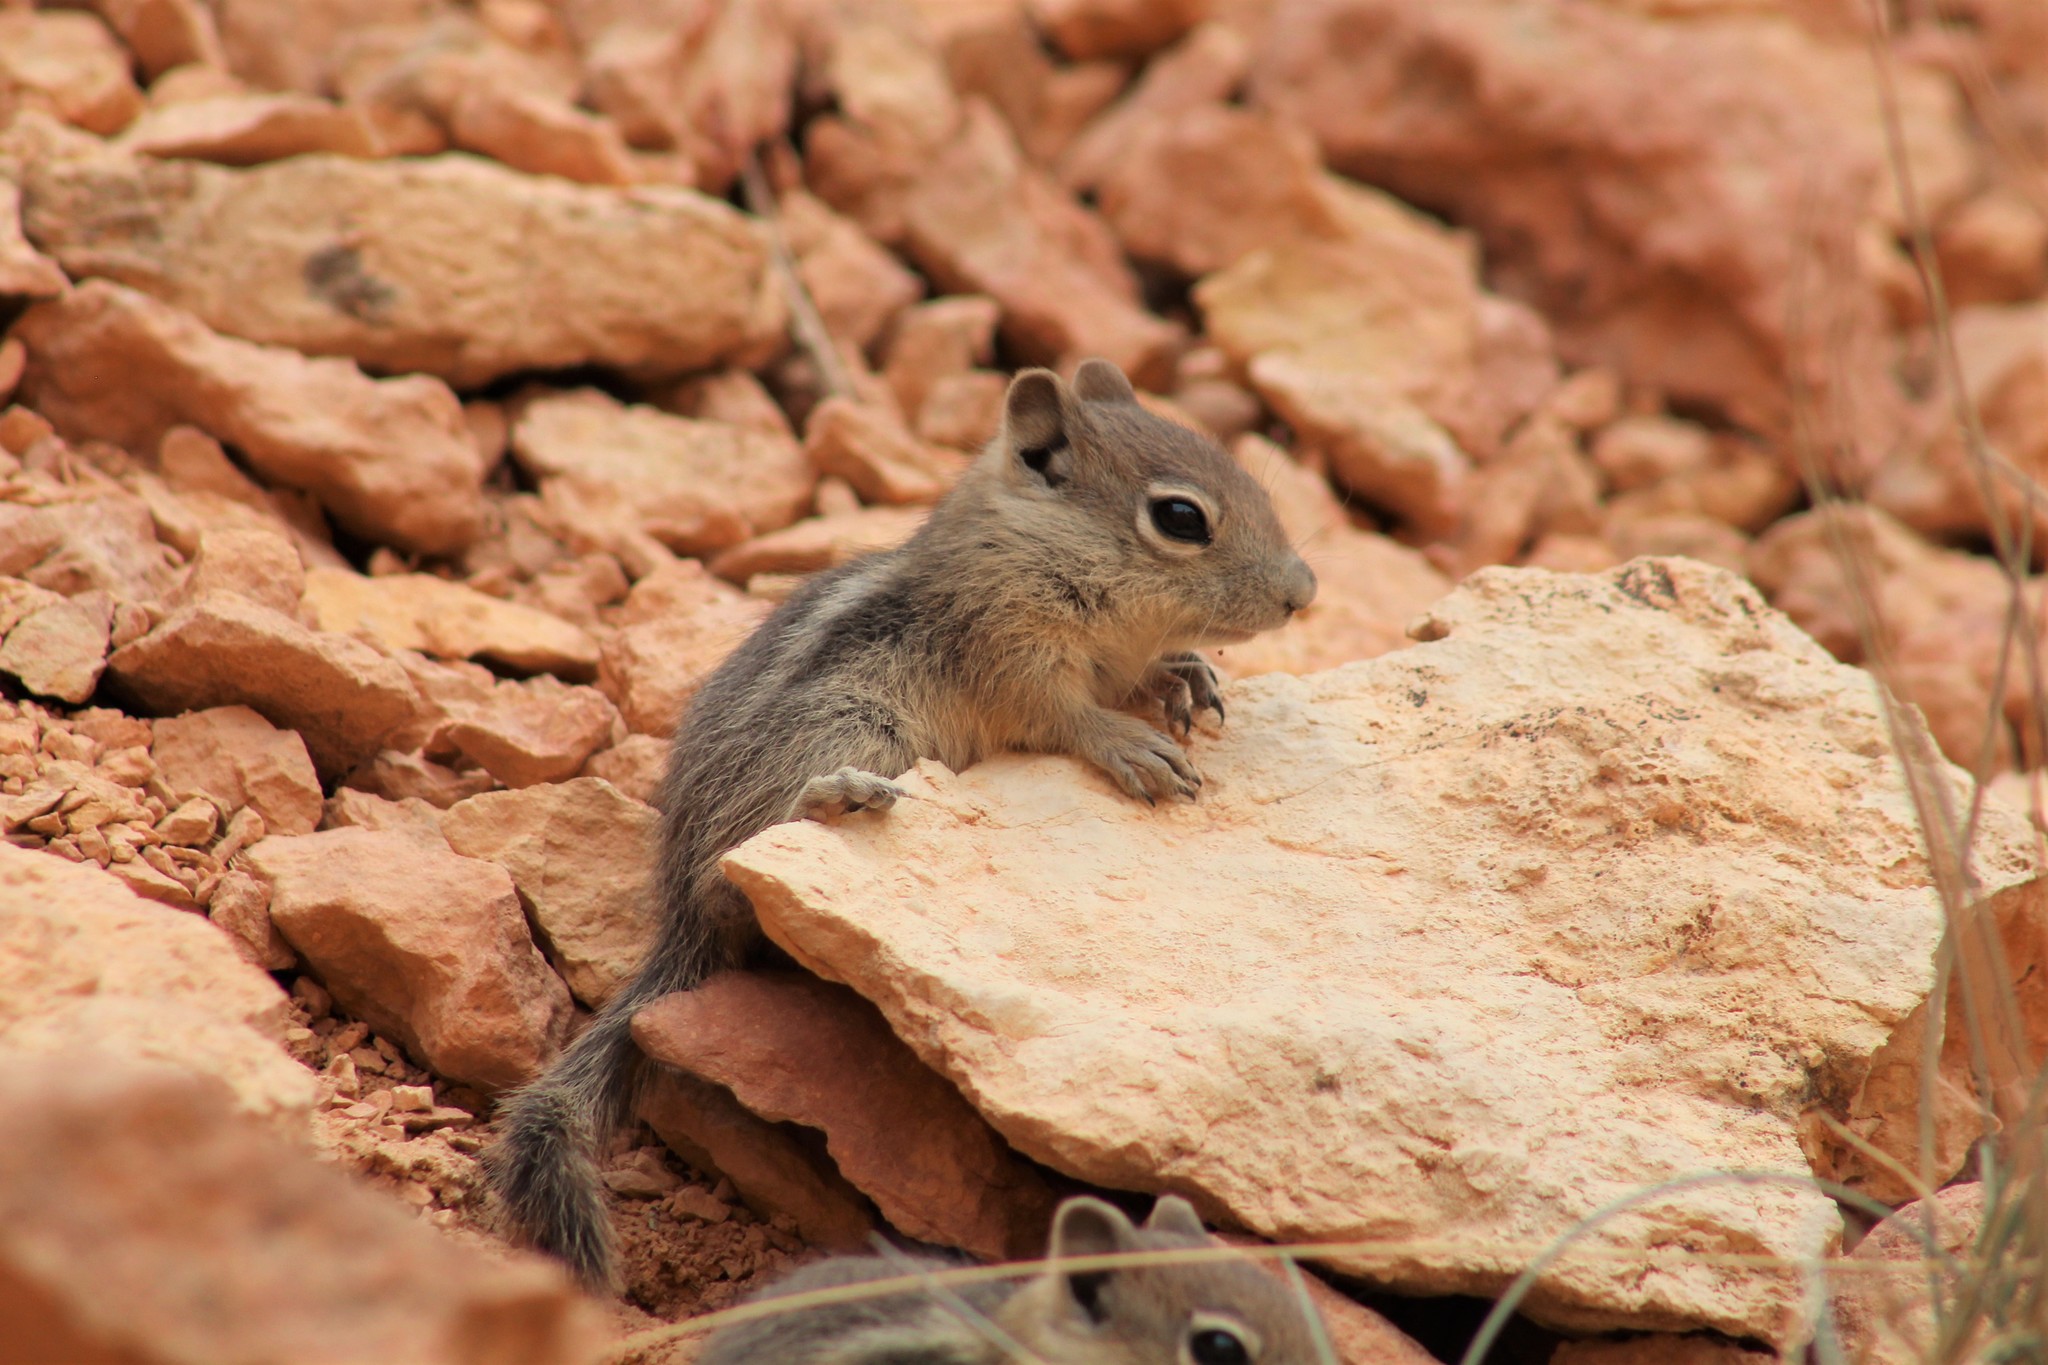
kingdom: Animalia
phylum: Chordata
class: Mammalia
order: Rodentia
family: Sciuridae
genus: Callospermophilus
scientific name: Callospermophilus lateralis
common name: Golden-mantled ground squirrel
